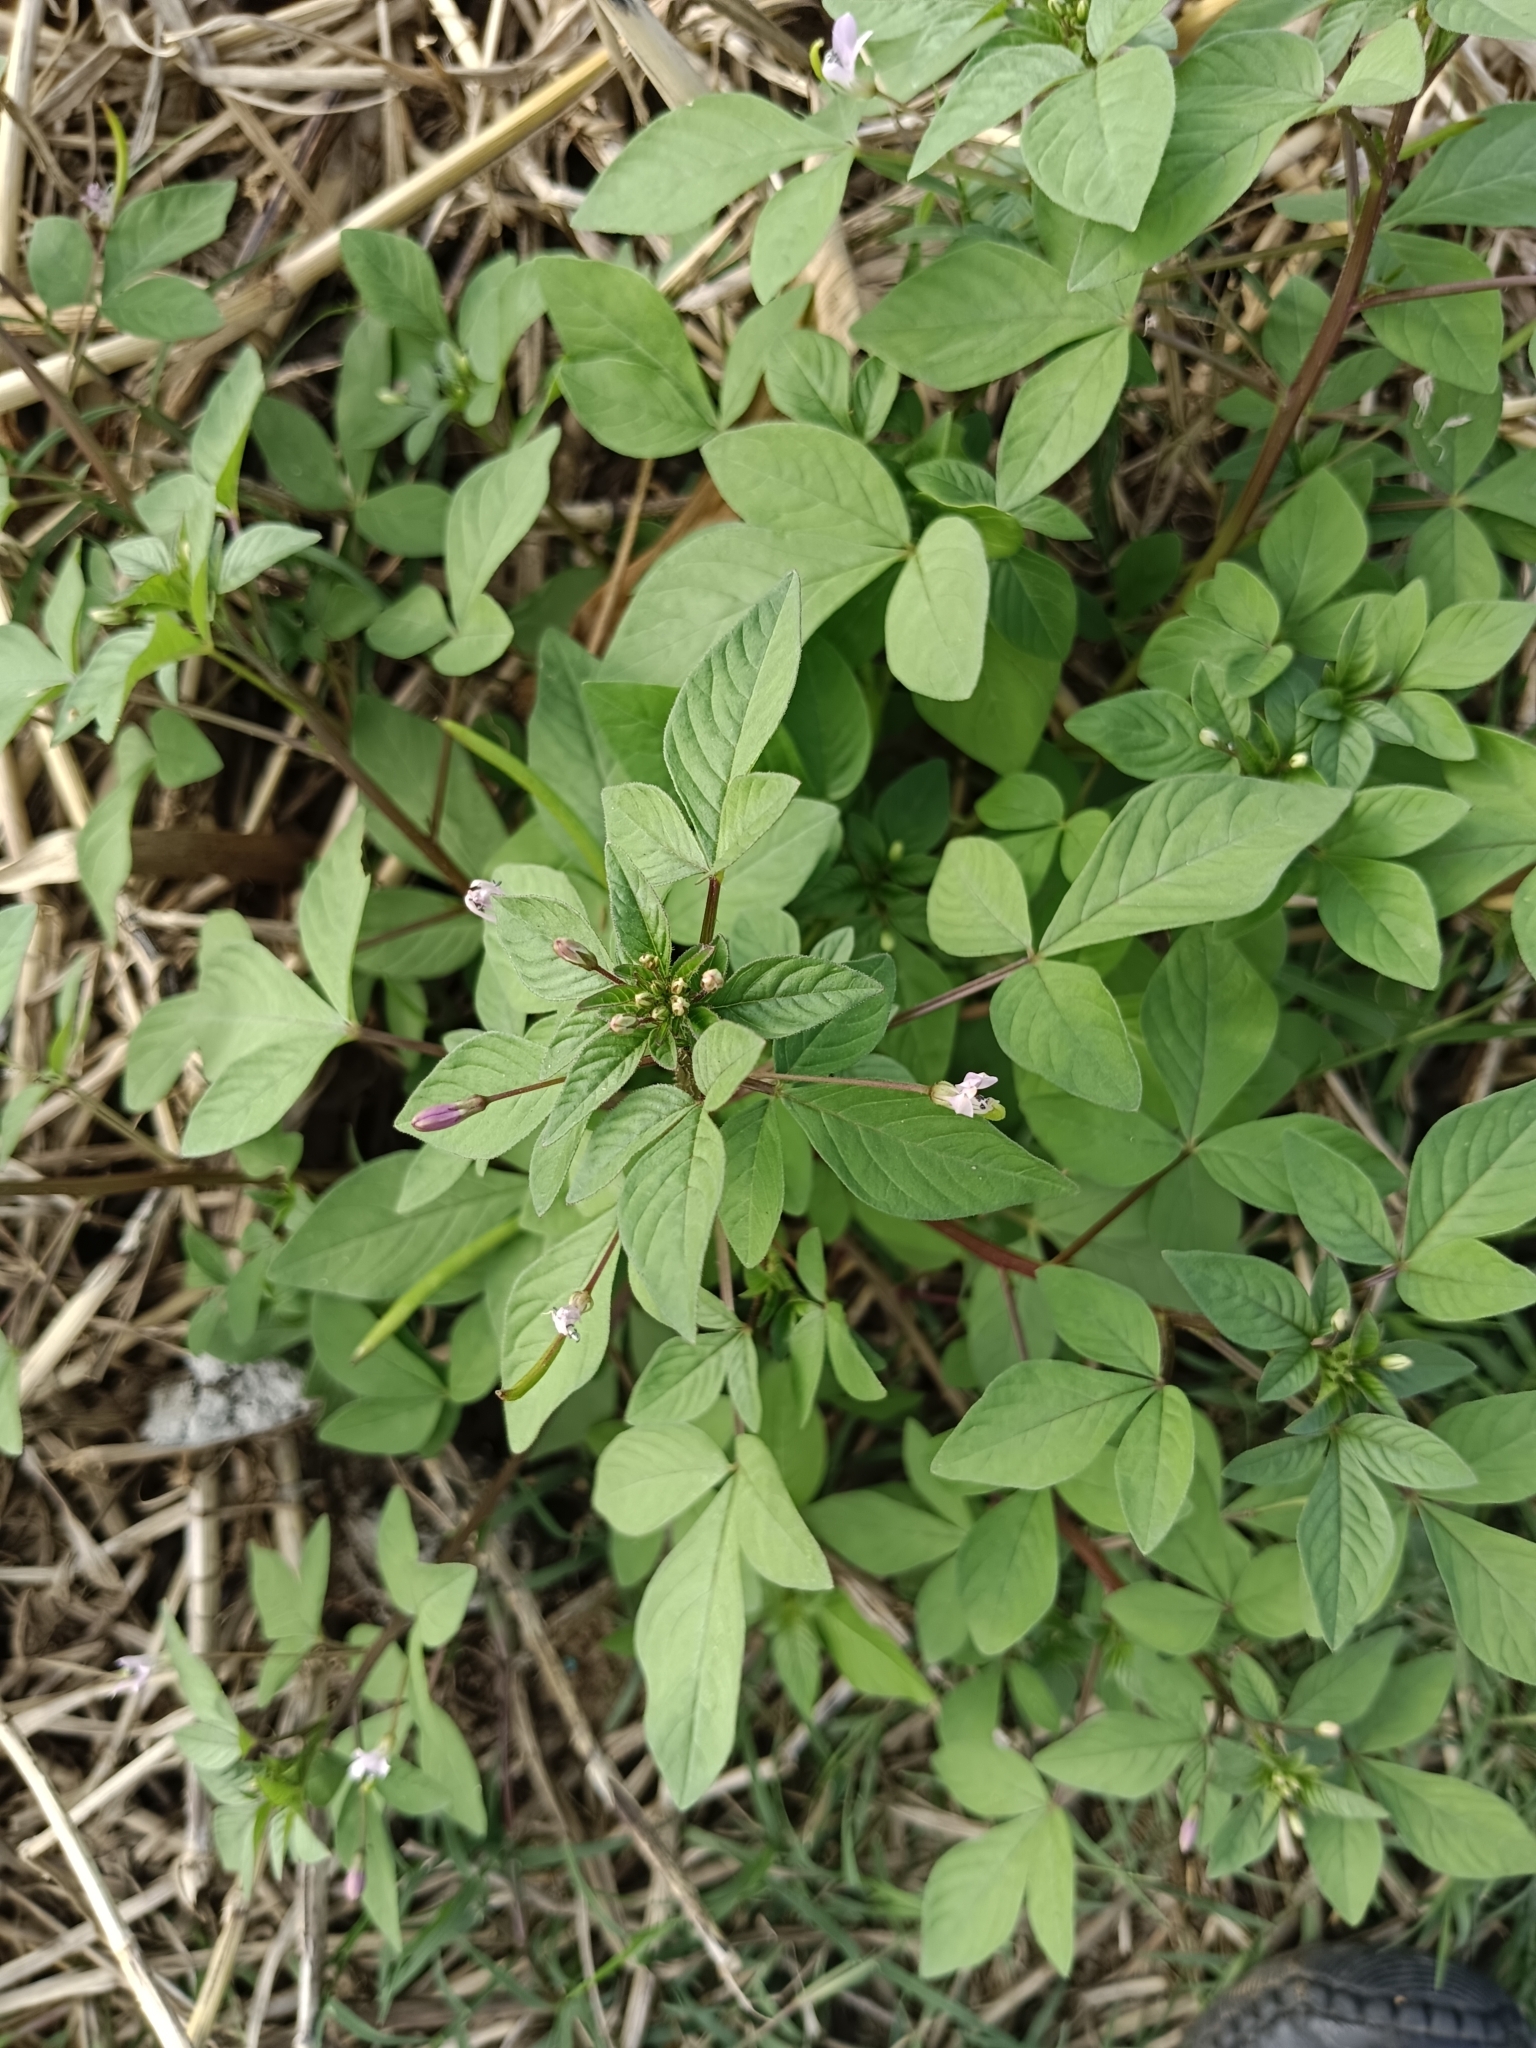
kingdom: Plantae
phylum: Tracheophyta
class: Magnoliopsida
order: Brassicales
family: Cleomaceae
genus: Sieruela
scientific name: Sieruela rutidosperma
